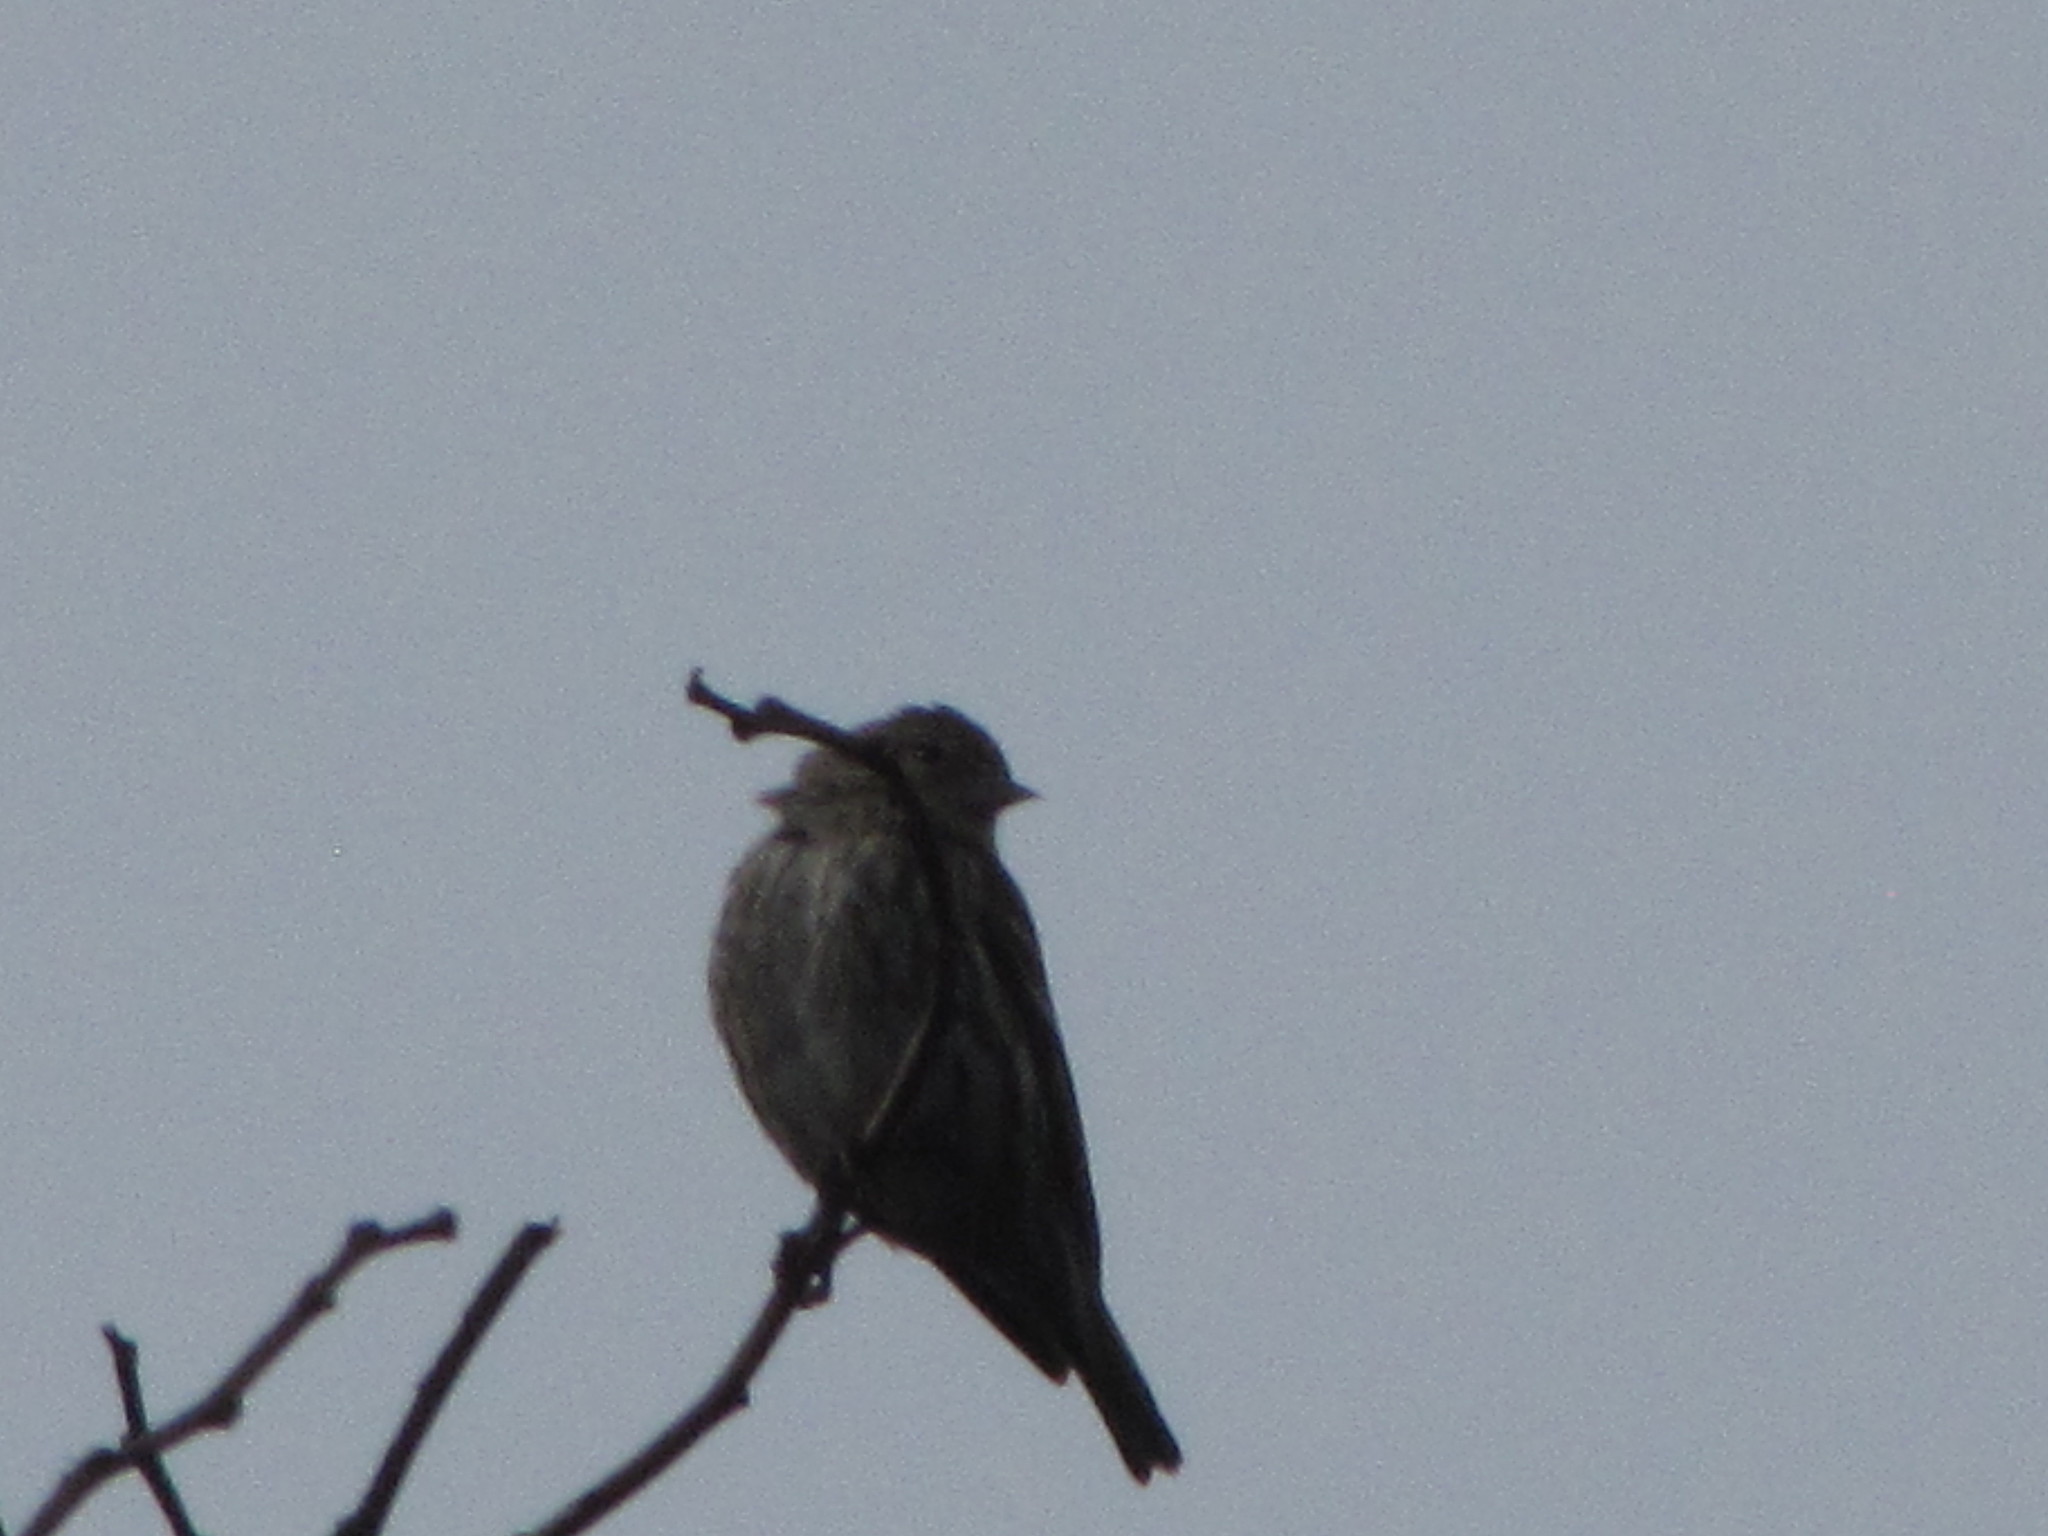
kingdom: Animalia
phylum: Chordata
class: Aves
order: Passeriformes
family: Fringillidae
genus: Spinus
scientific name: Spinus pinus
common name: Pine siskin
